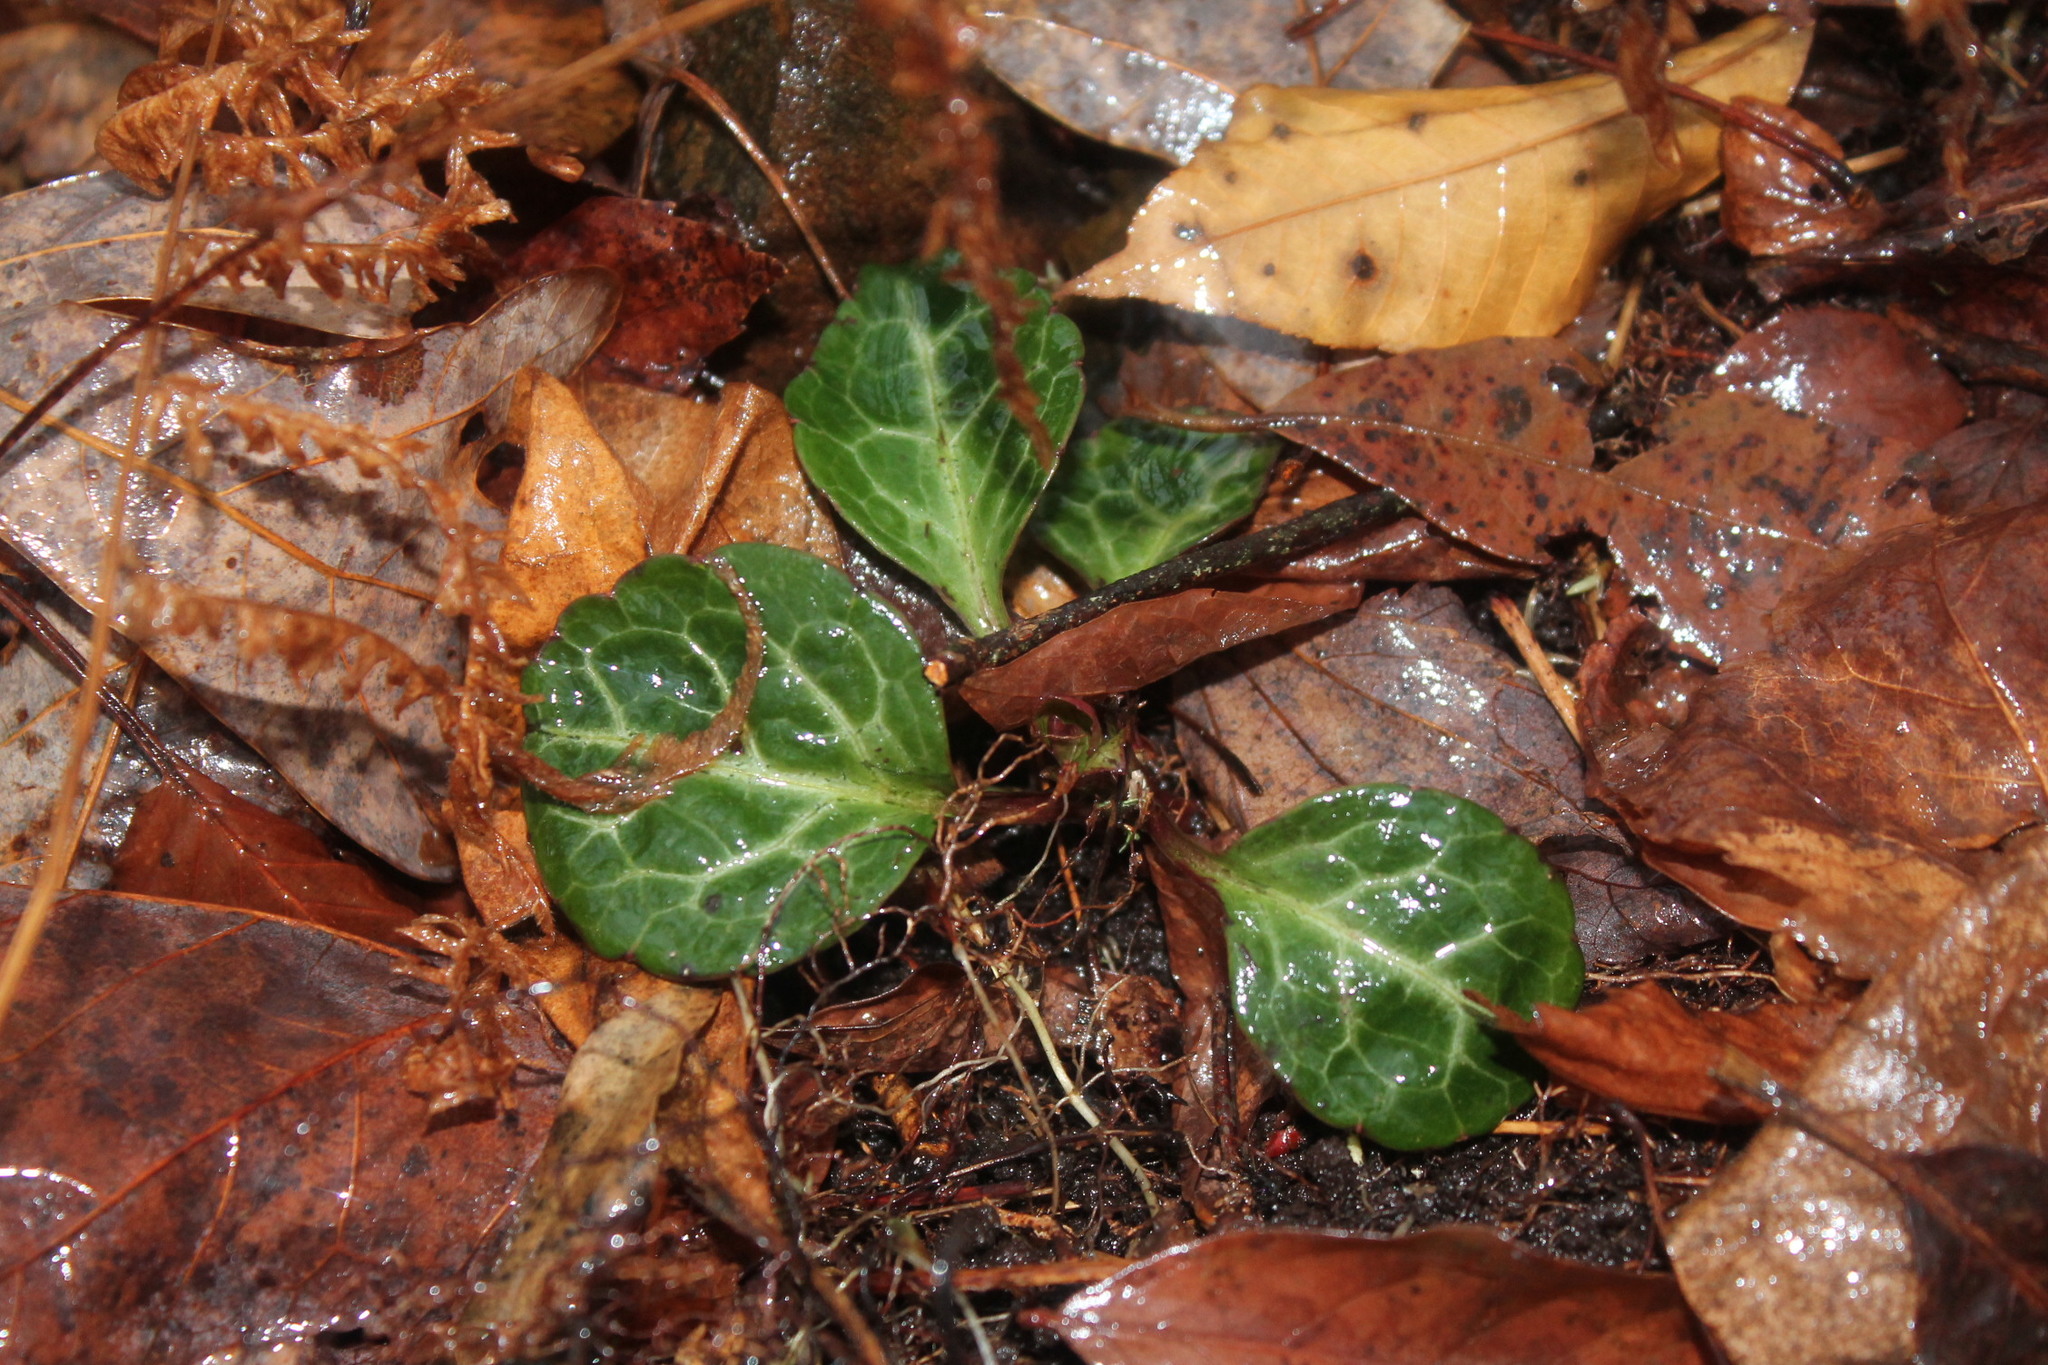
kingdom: Plantae
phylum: Tracheophyta
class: Magnoliopsida
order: Ericales
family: Ericaceae
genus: Pyrola
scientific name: Pyrola americana
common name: American wintergreen
